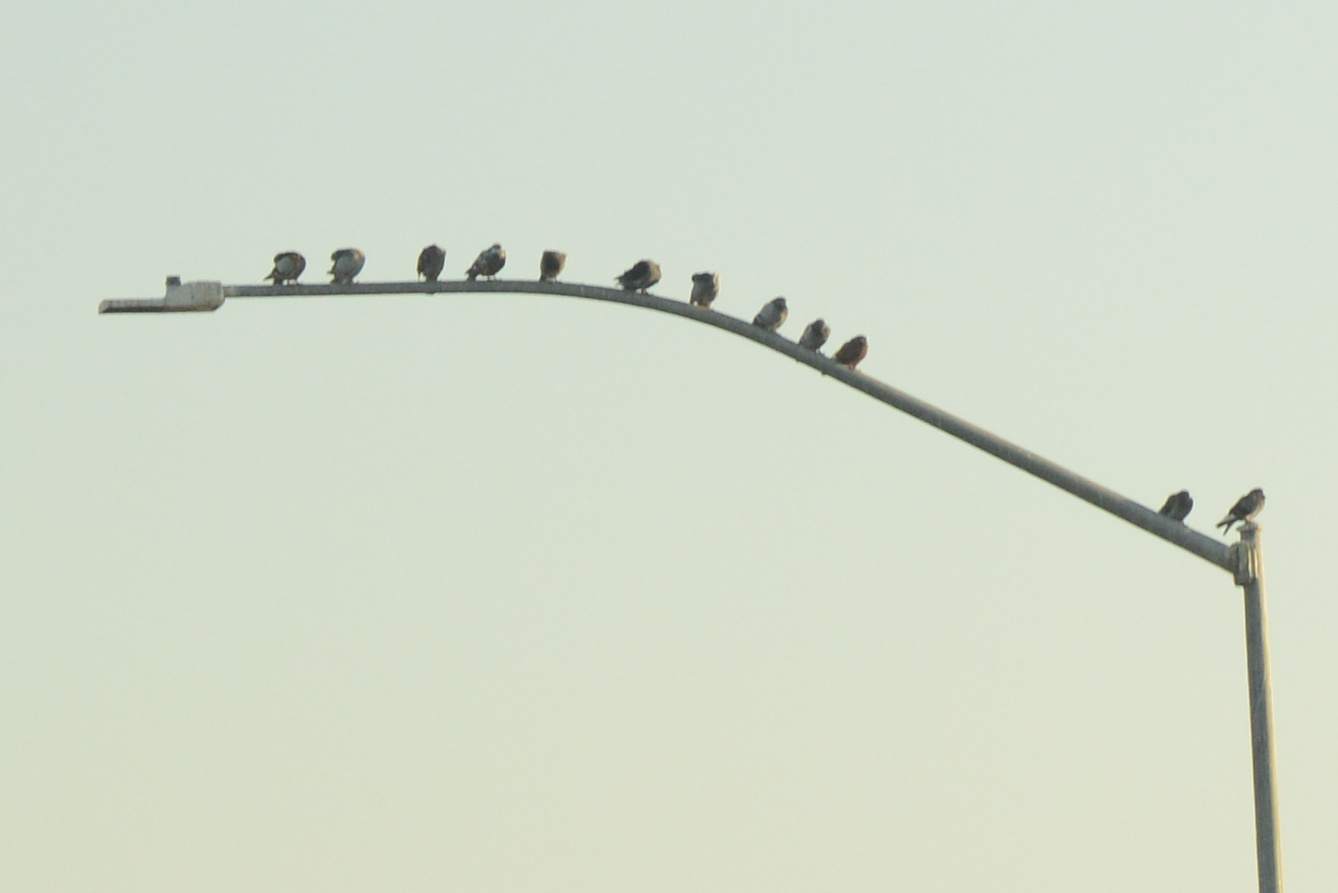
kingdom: Animalia
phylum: Chordata
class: Aves
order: Columbiformes
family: Columbidae
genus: Columba
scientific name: Columba livia
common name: Rock pigeon
